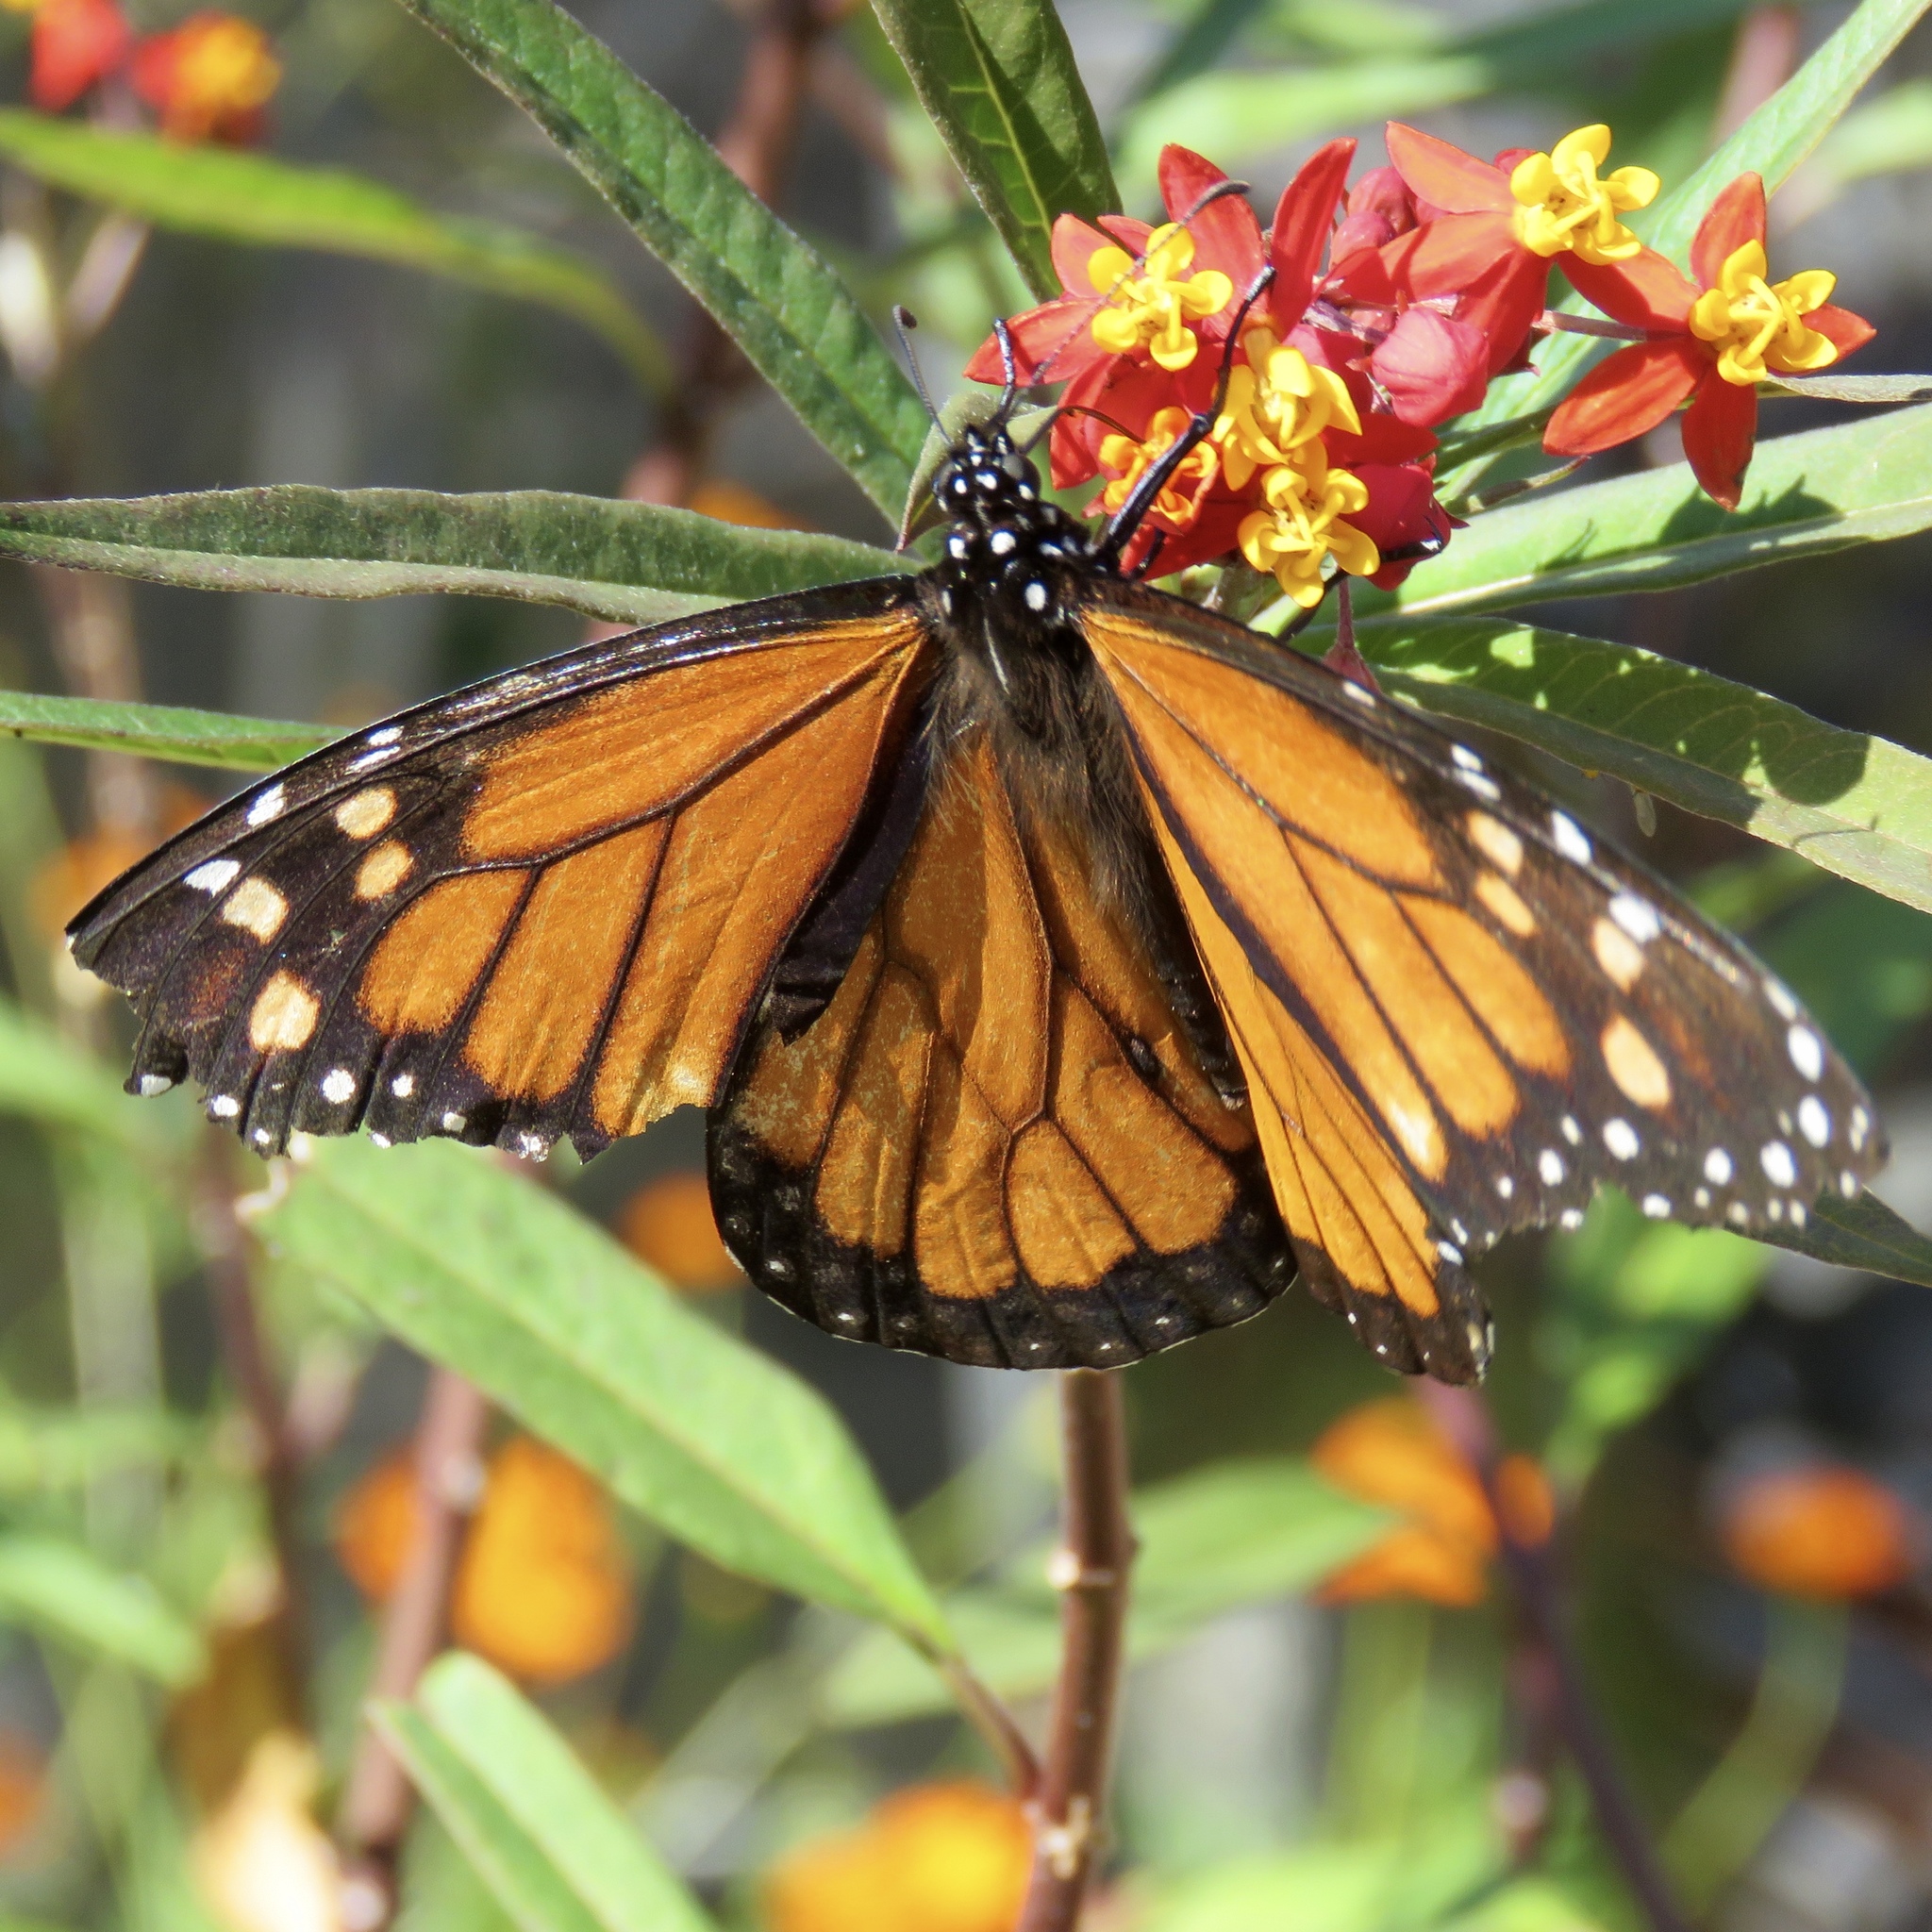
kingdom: Animalia
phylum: Arthropoda
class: Insecta
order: Lepidoptera
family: Nymphalidae
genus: Danaus
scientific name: Danaus plexippus
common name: Monarch
